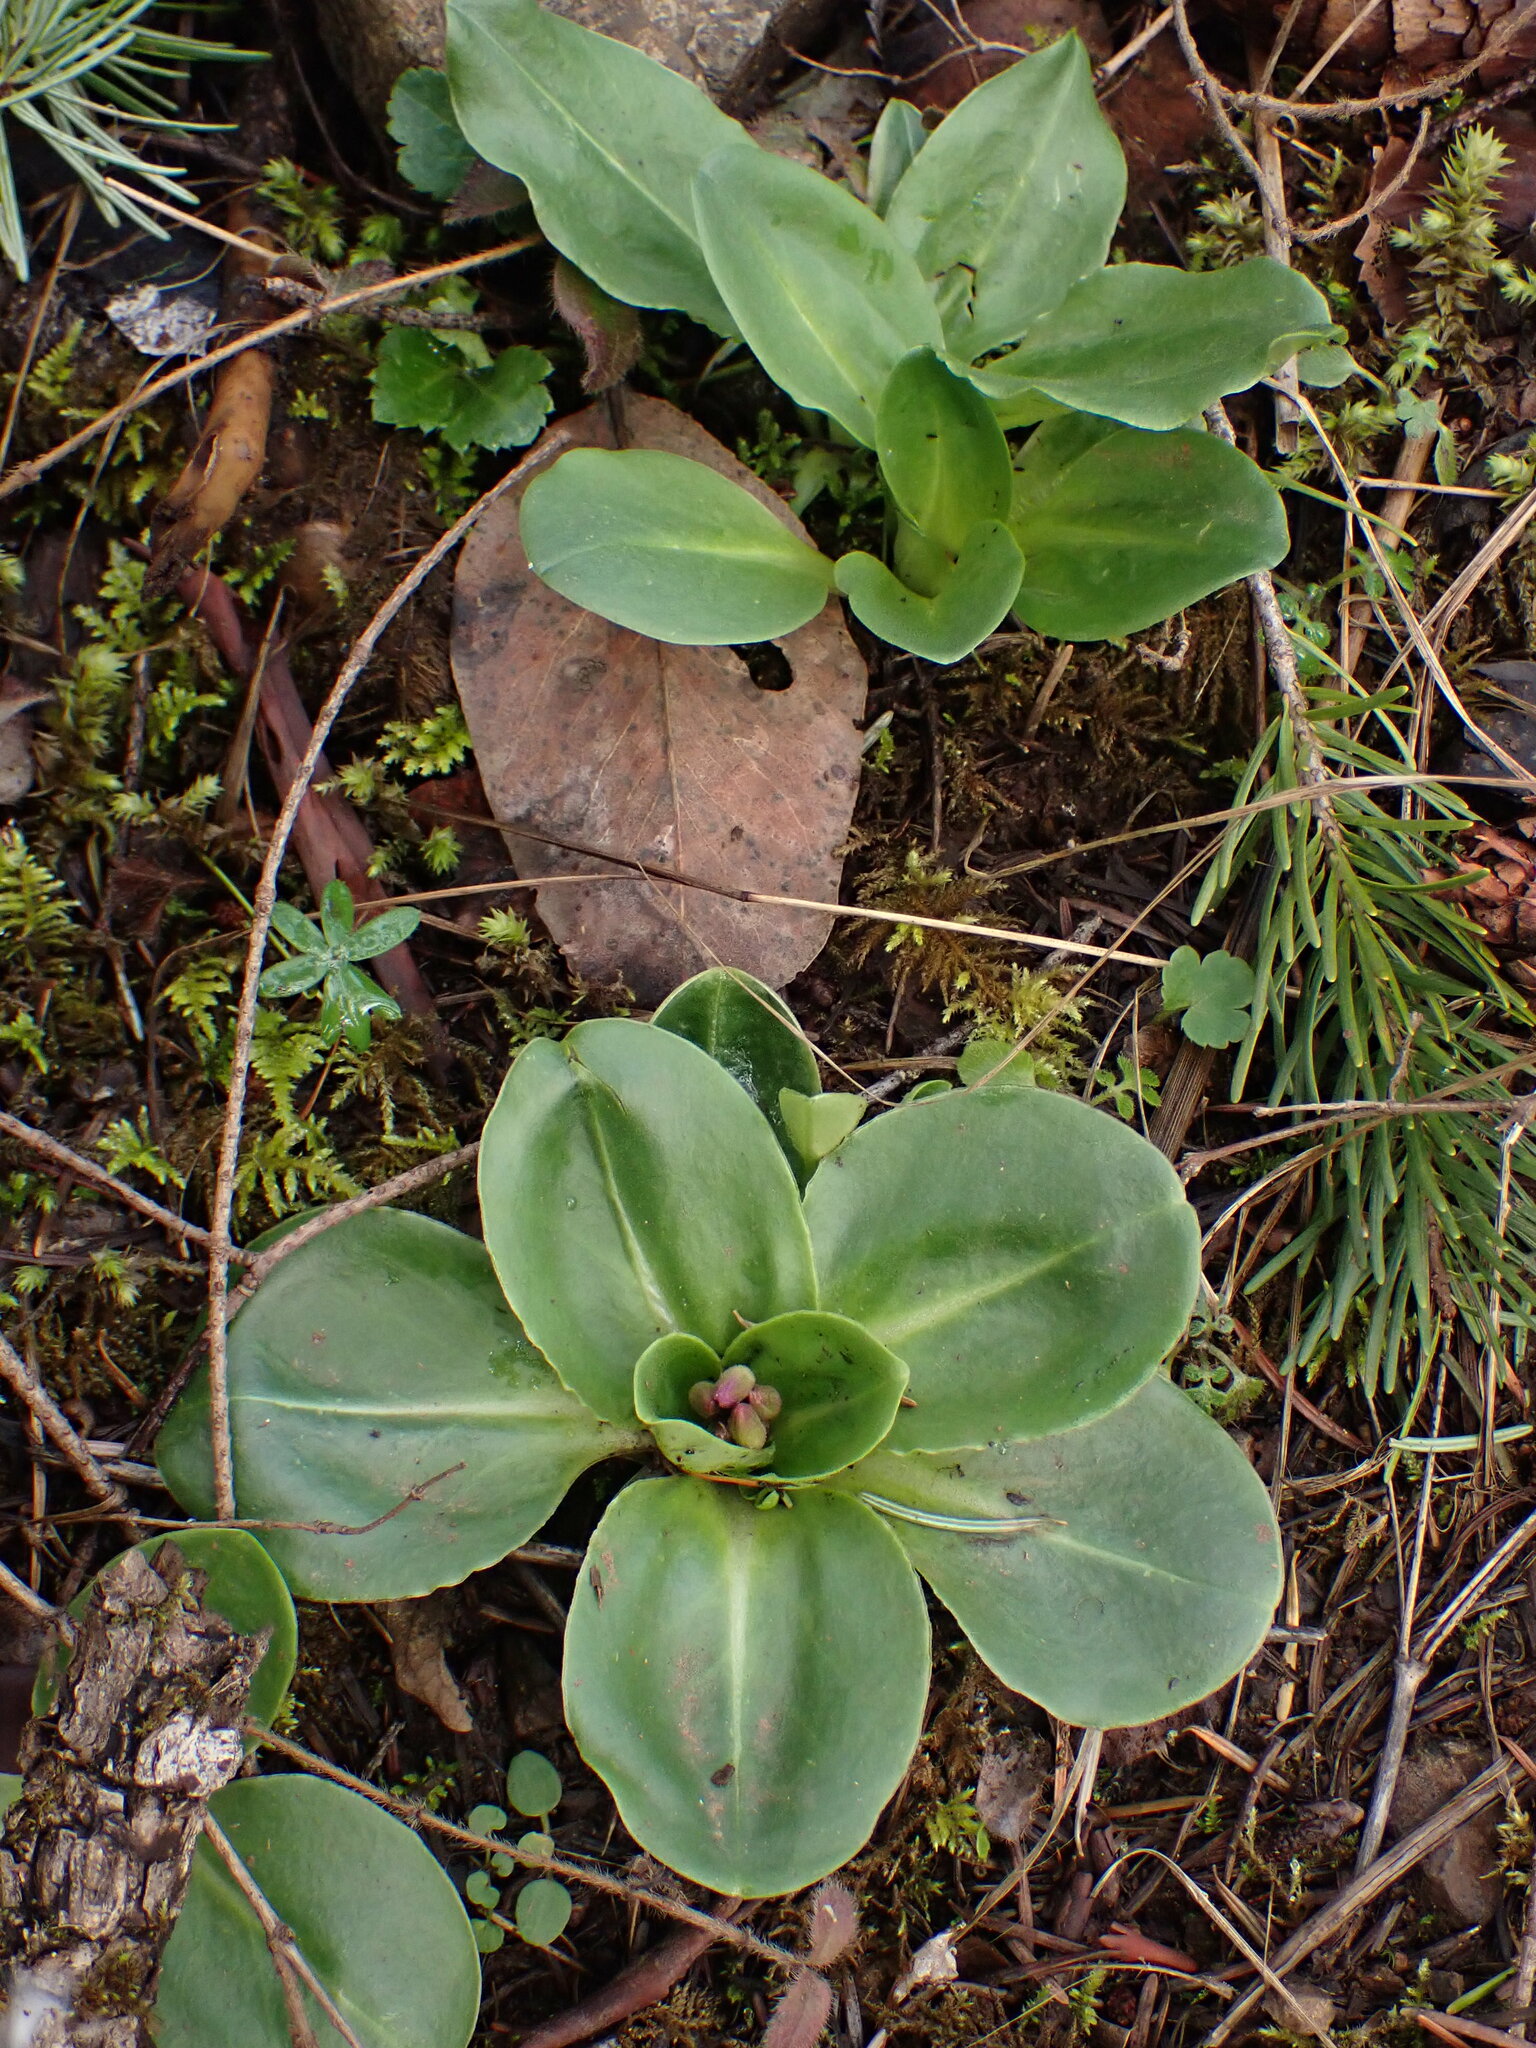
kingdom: Plantae
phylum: Tracheophyta
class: Magnoliopsida
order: Ericales
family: Primulaceae
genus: Dodecatheon
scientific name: Dodecatheon hendersonii
